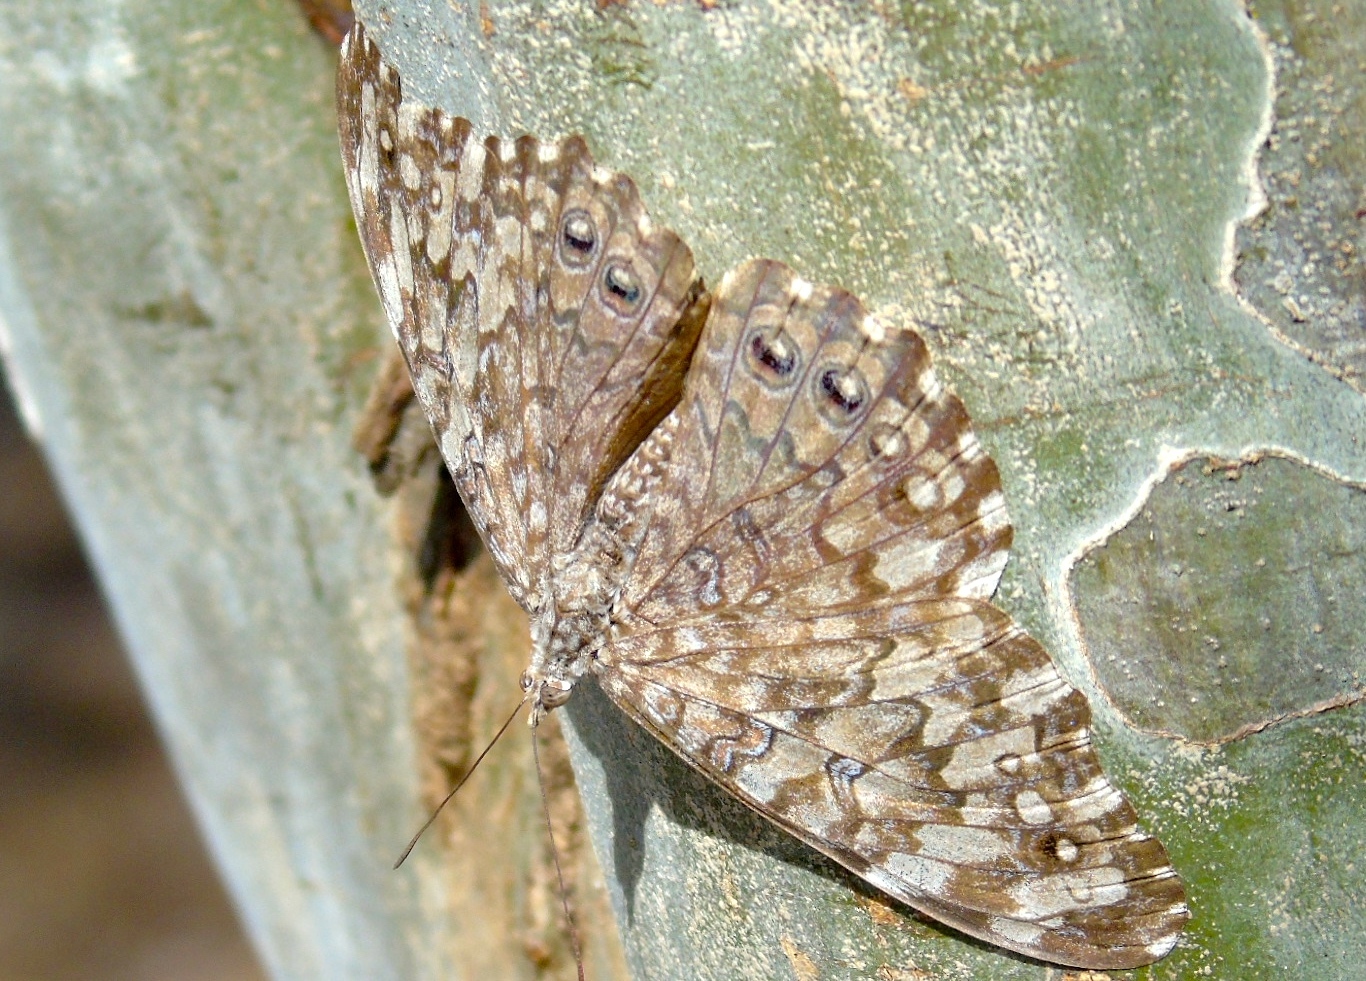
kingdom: Animalia
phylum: Arthropoda
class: Insecta
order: Lepidoptera
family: Nymphalidae
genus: Hamadryas
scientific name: Hamadryas februa
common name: Gray cracker
